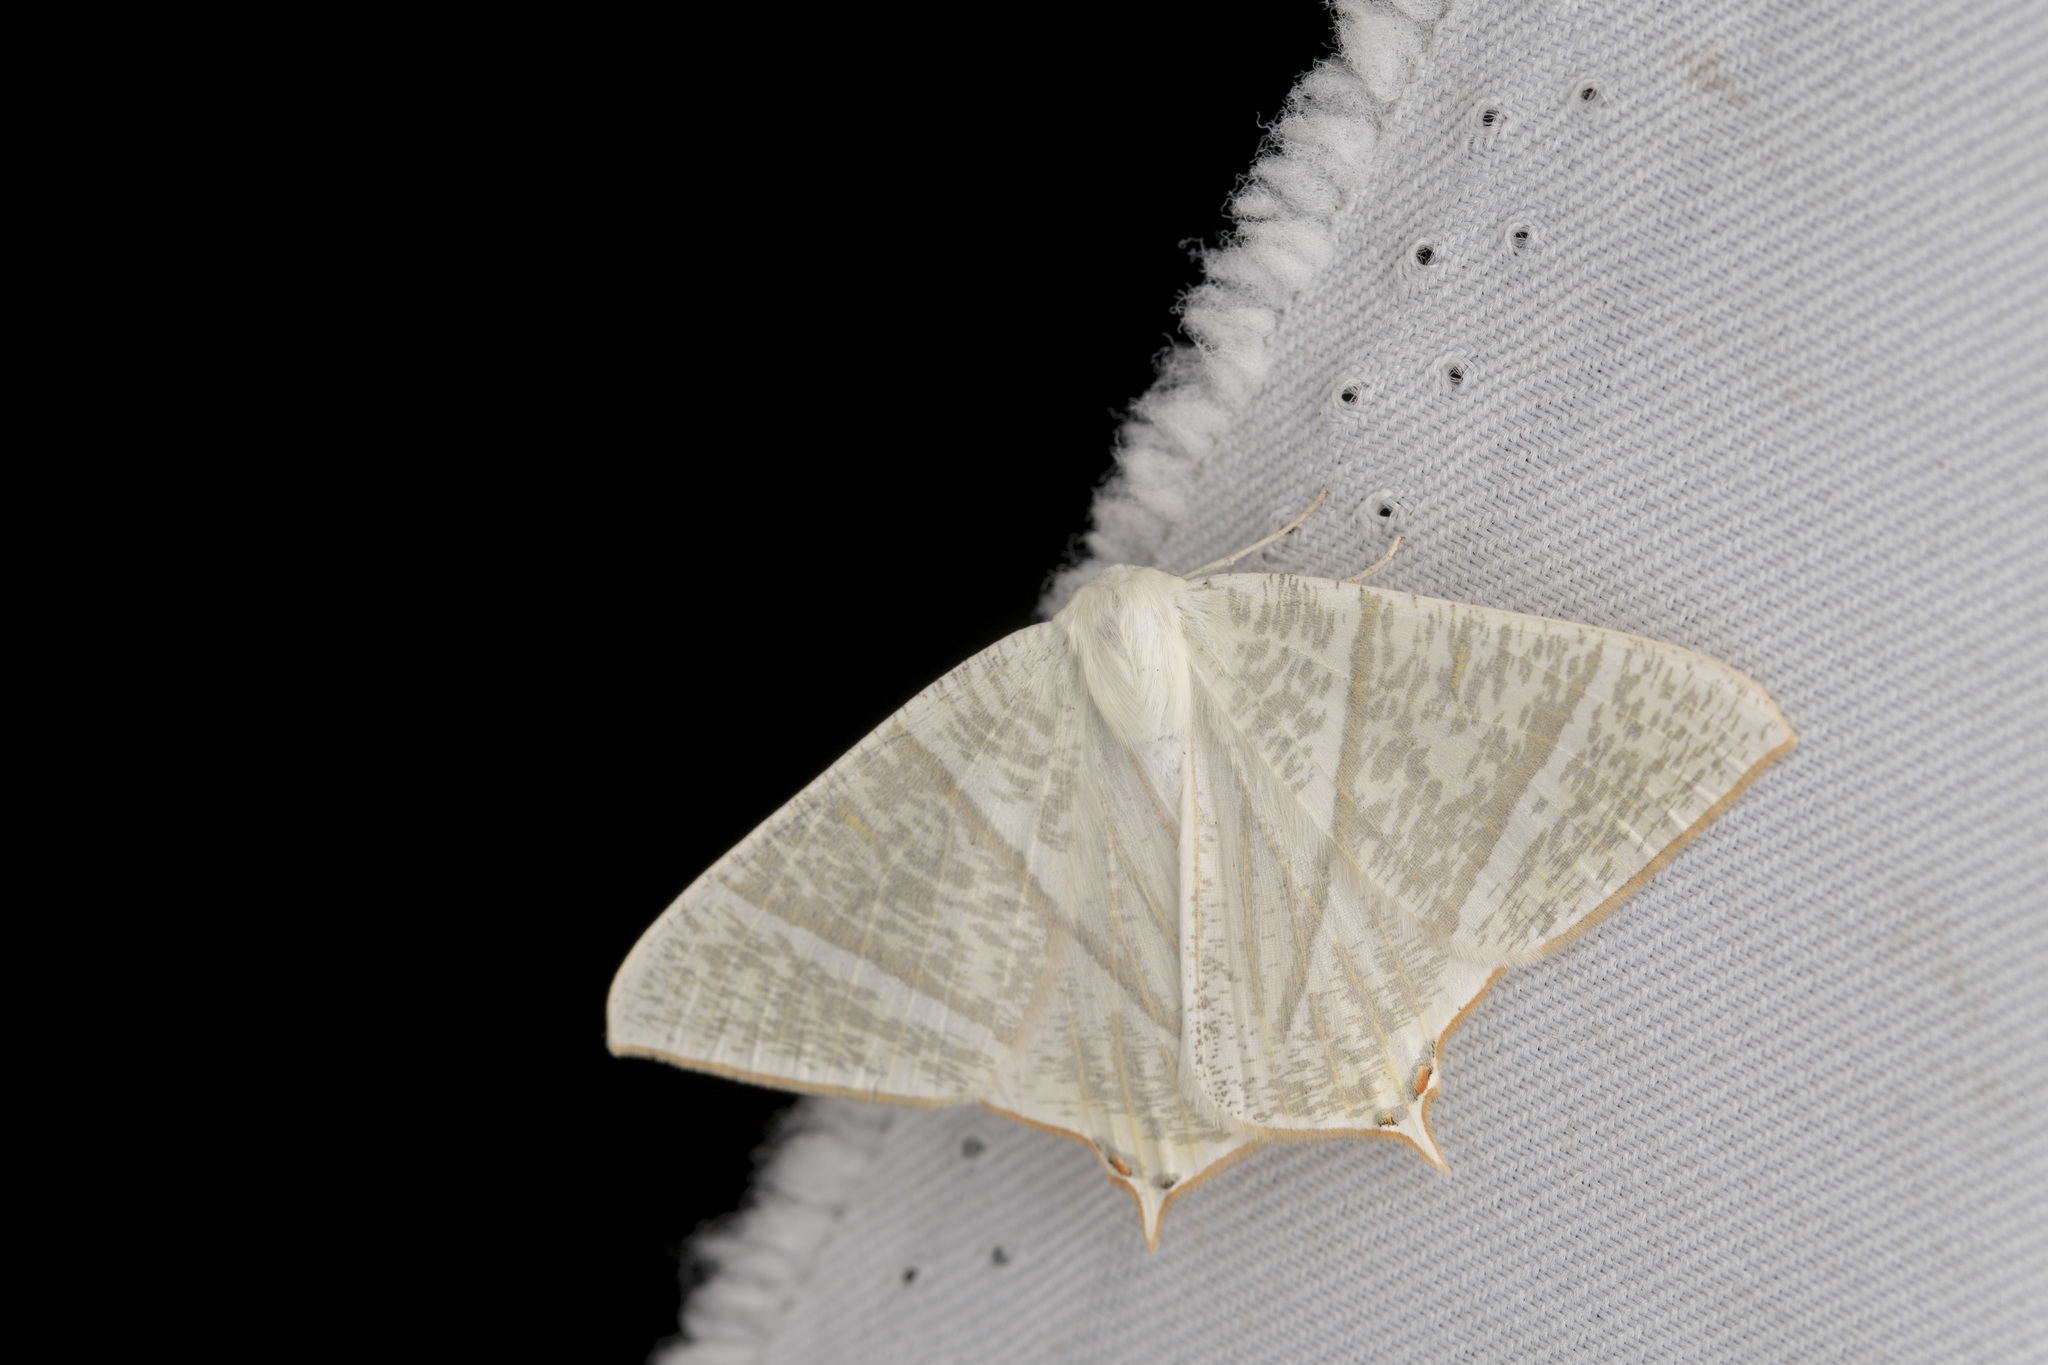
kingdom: Animalia
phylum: Arthropoda
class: Insecta
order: Lepidoptera
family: Geometridae
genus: Ourapteryx
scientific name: Ourapteryx inspersa
